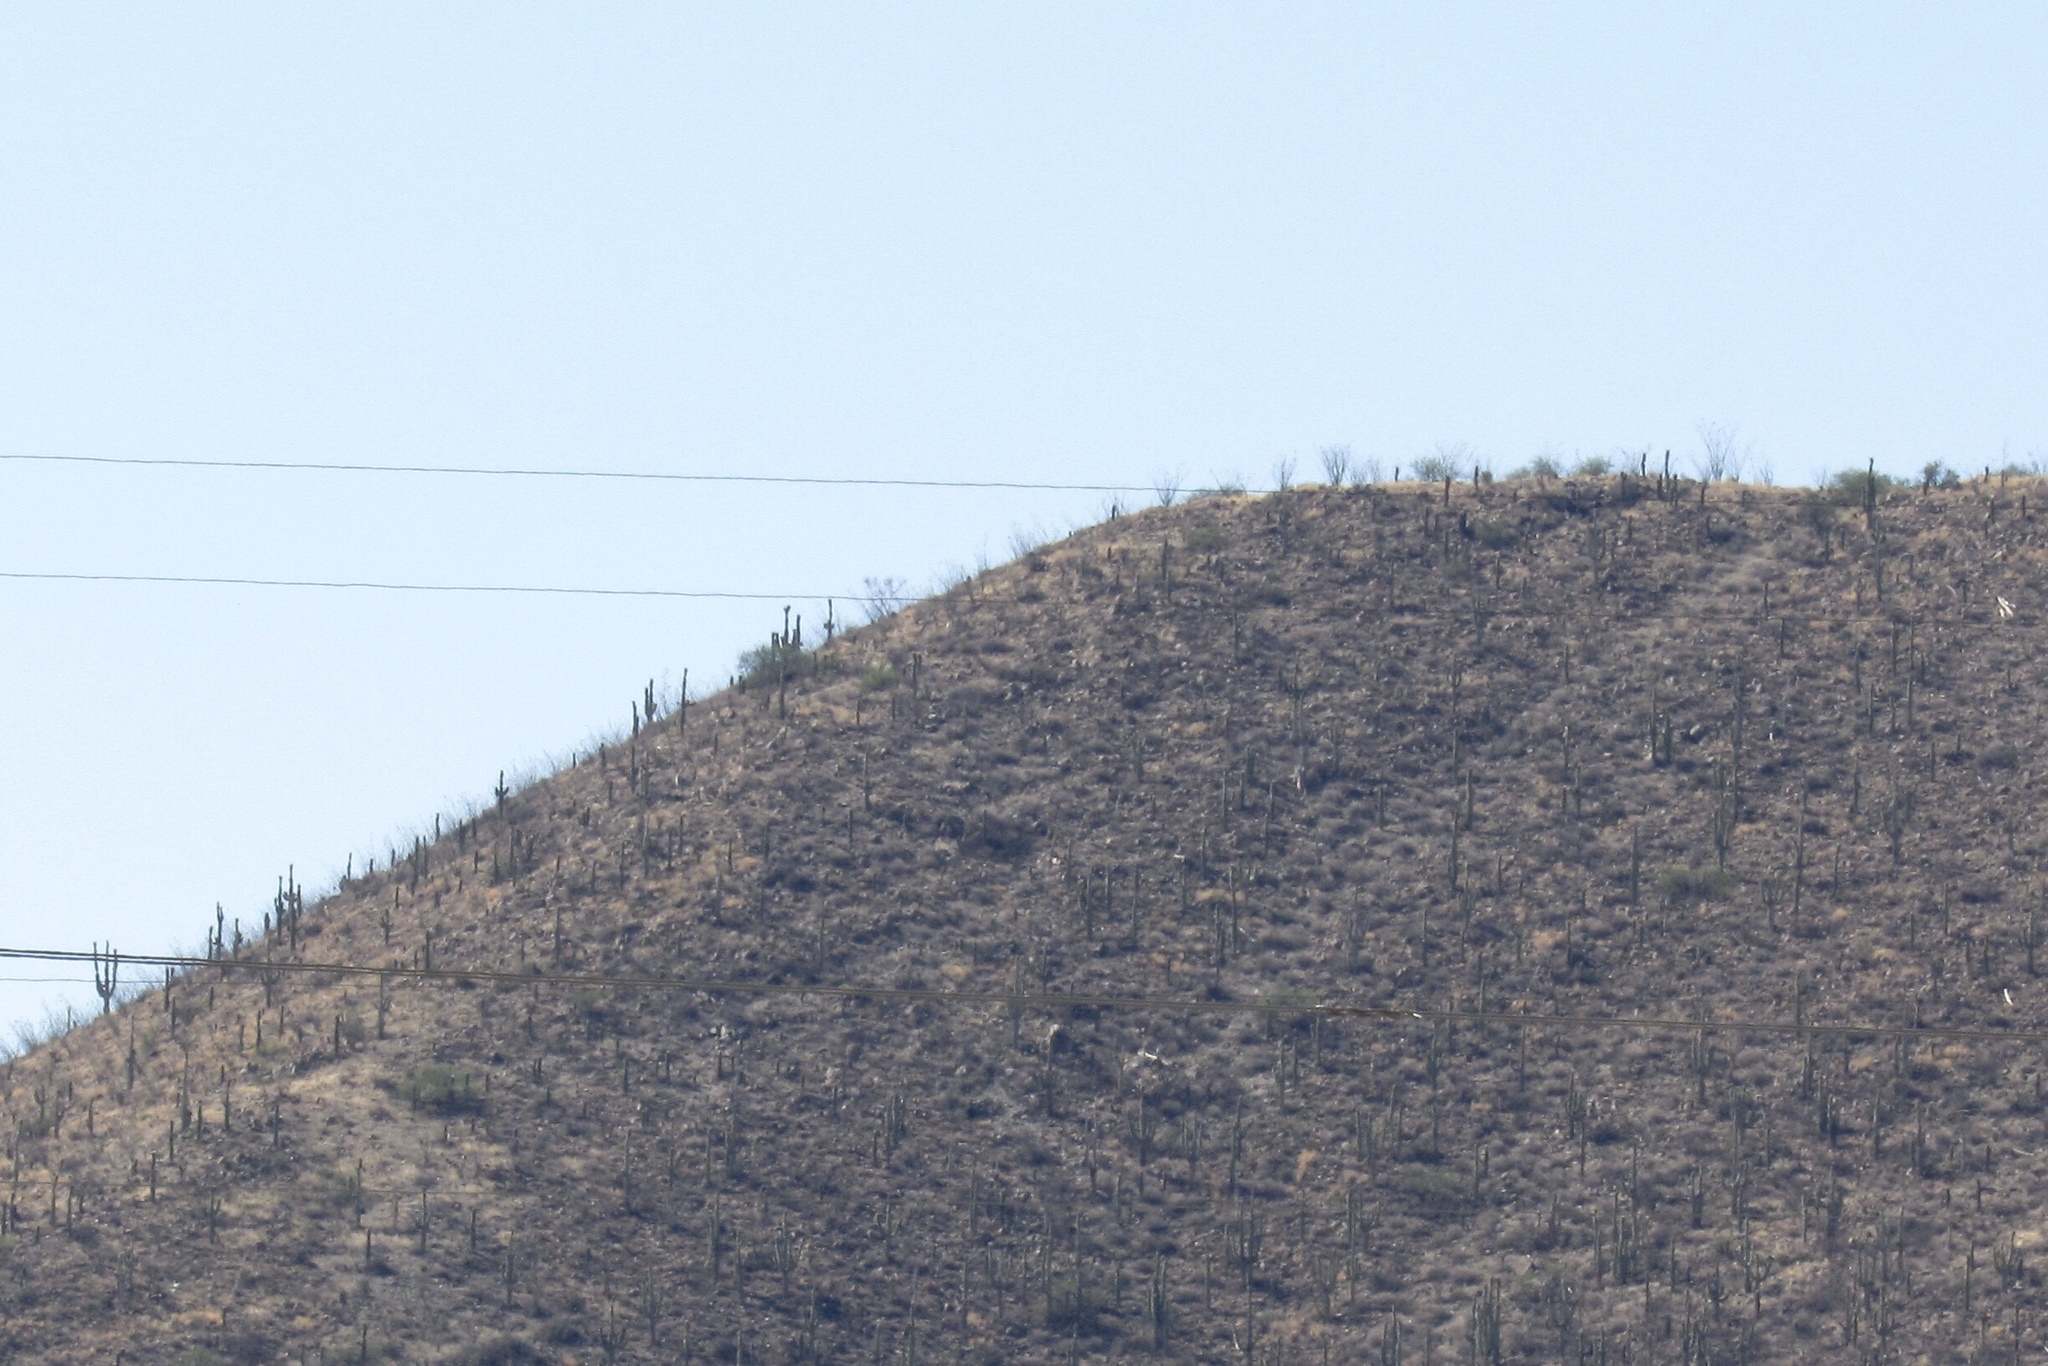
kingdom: Plantae
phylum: Tracheophyta
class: Magnoliopsida
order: Caryophyllales
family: Cactaceae
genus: Carnegiea
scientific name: Carnegiea gigantea
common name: Saguaro
